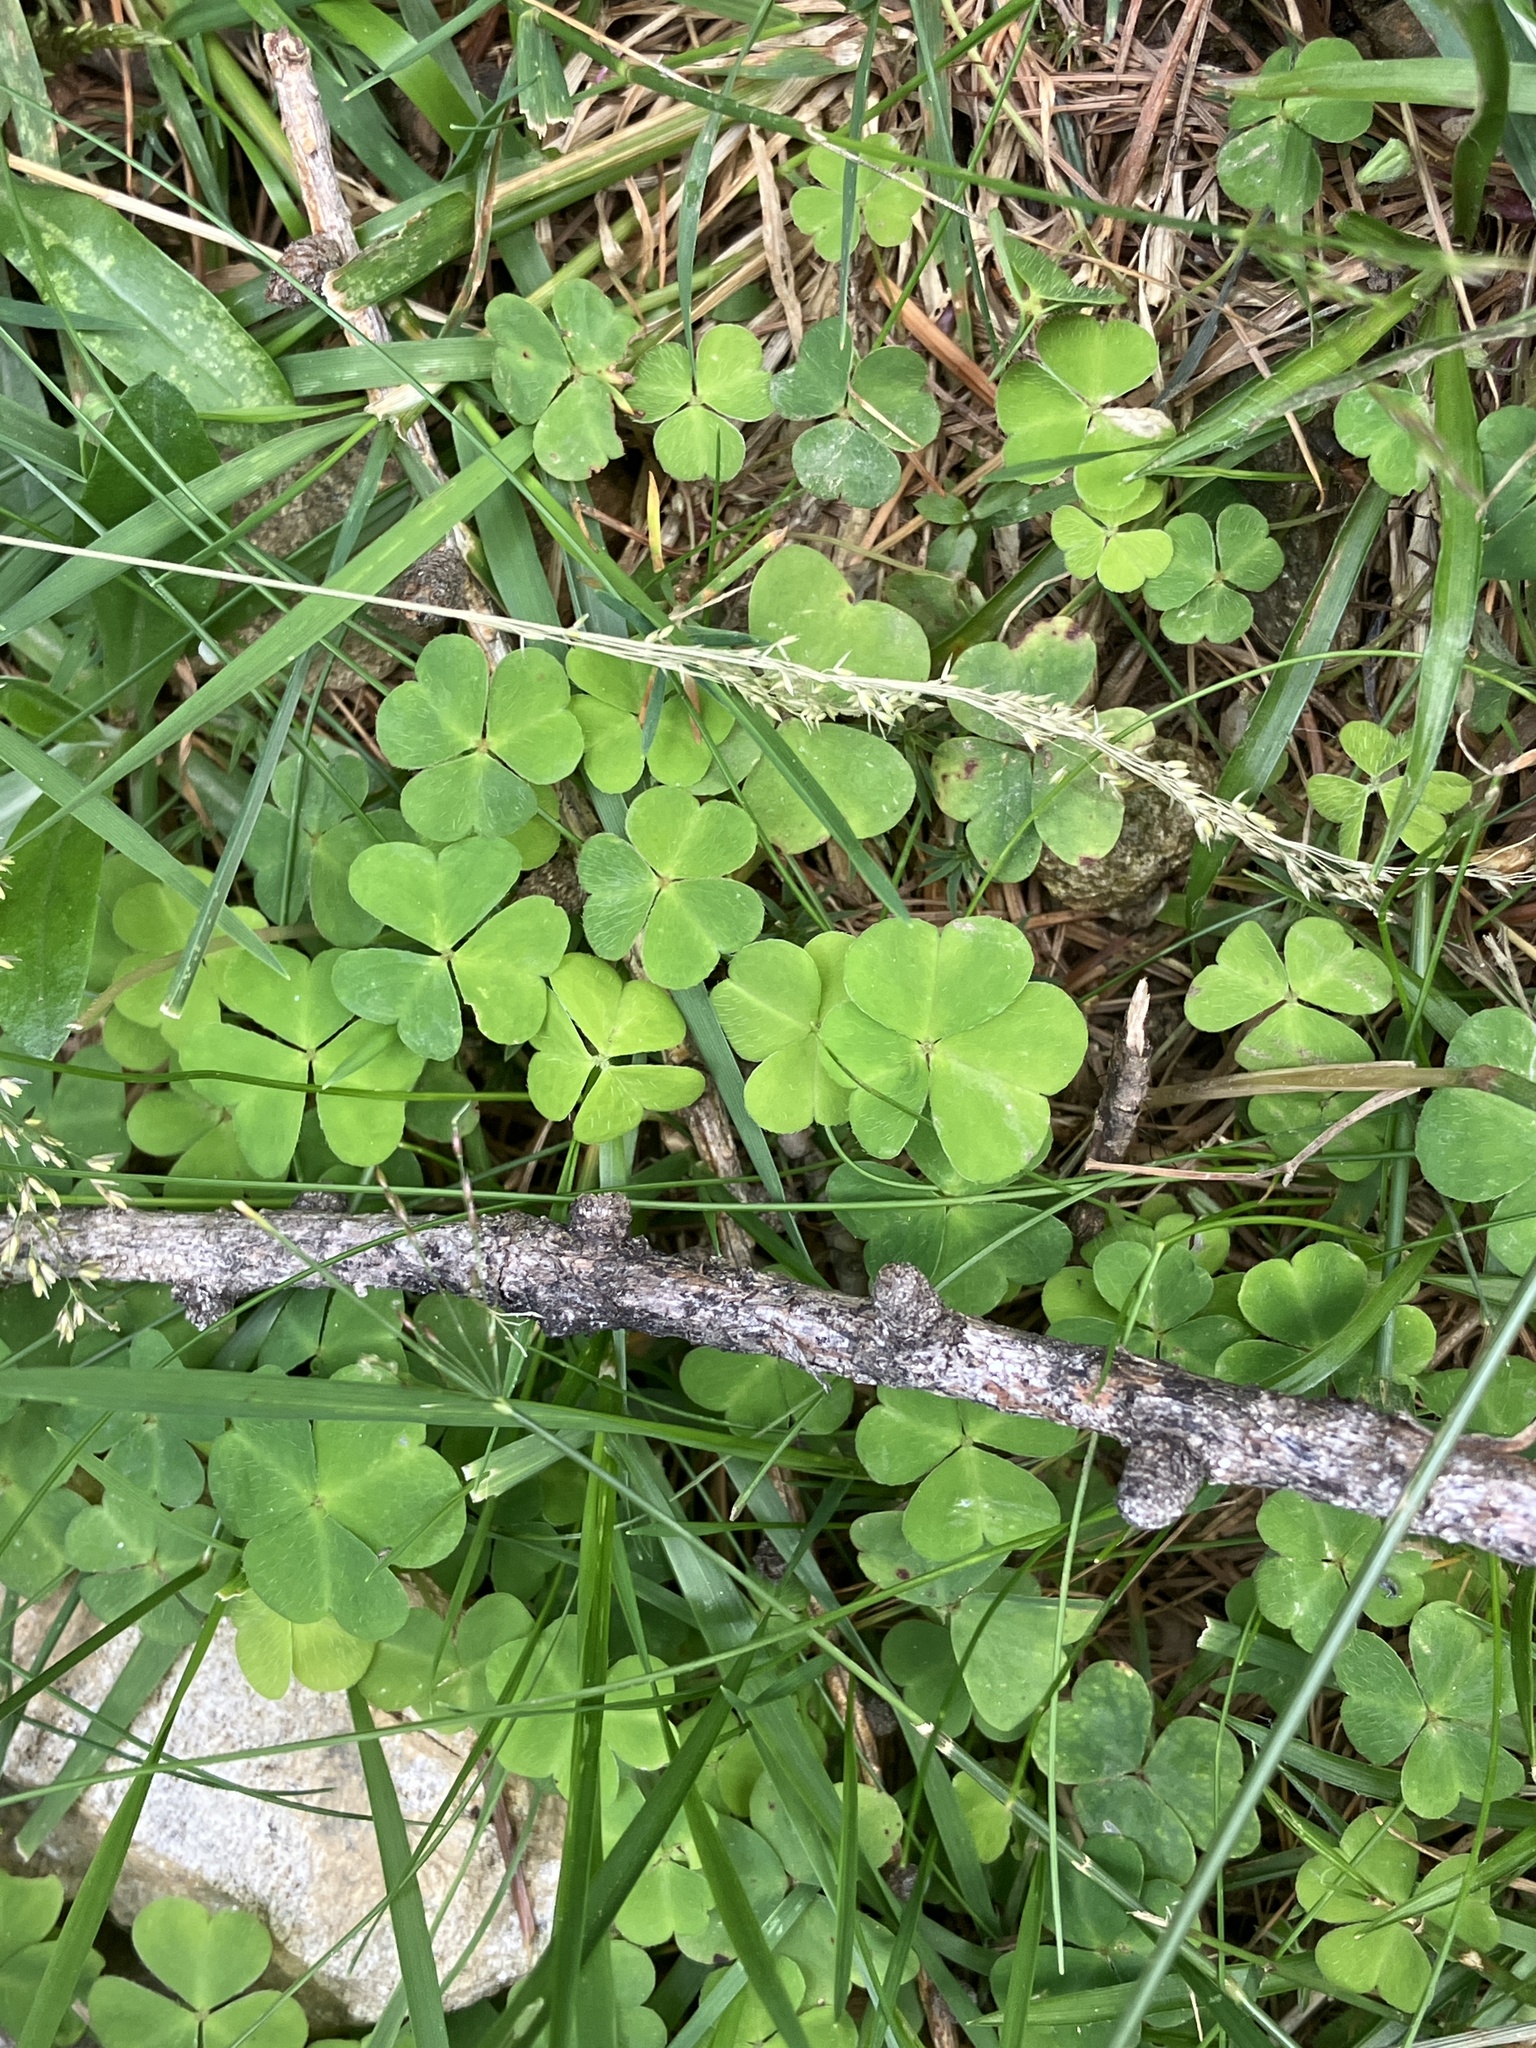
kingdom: Plantae
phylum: Tracheophyta
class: Magnoliopsida
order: Oxalidales
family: Oxalidaceae
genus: Oxalis
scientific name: Oxalis acetosella
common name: Wood-sorrel
